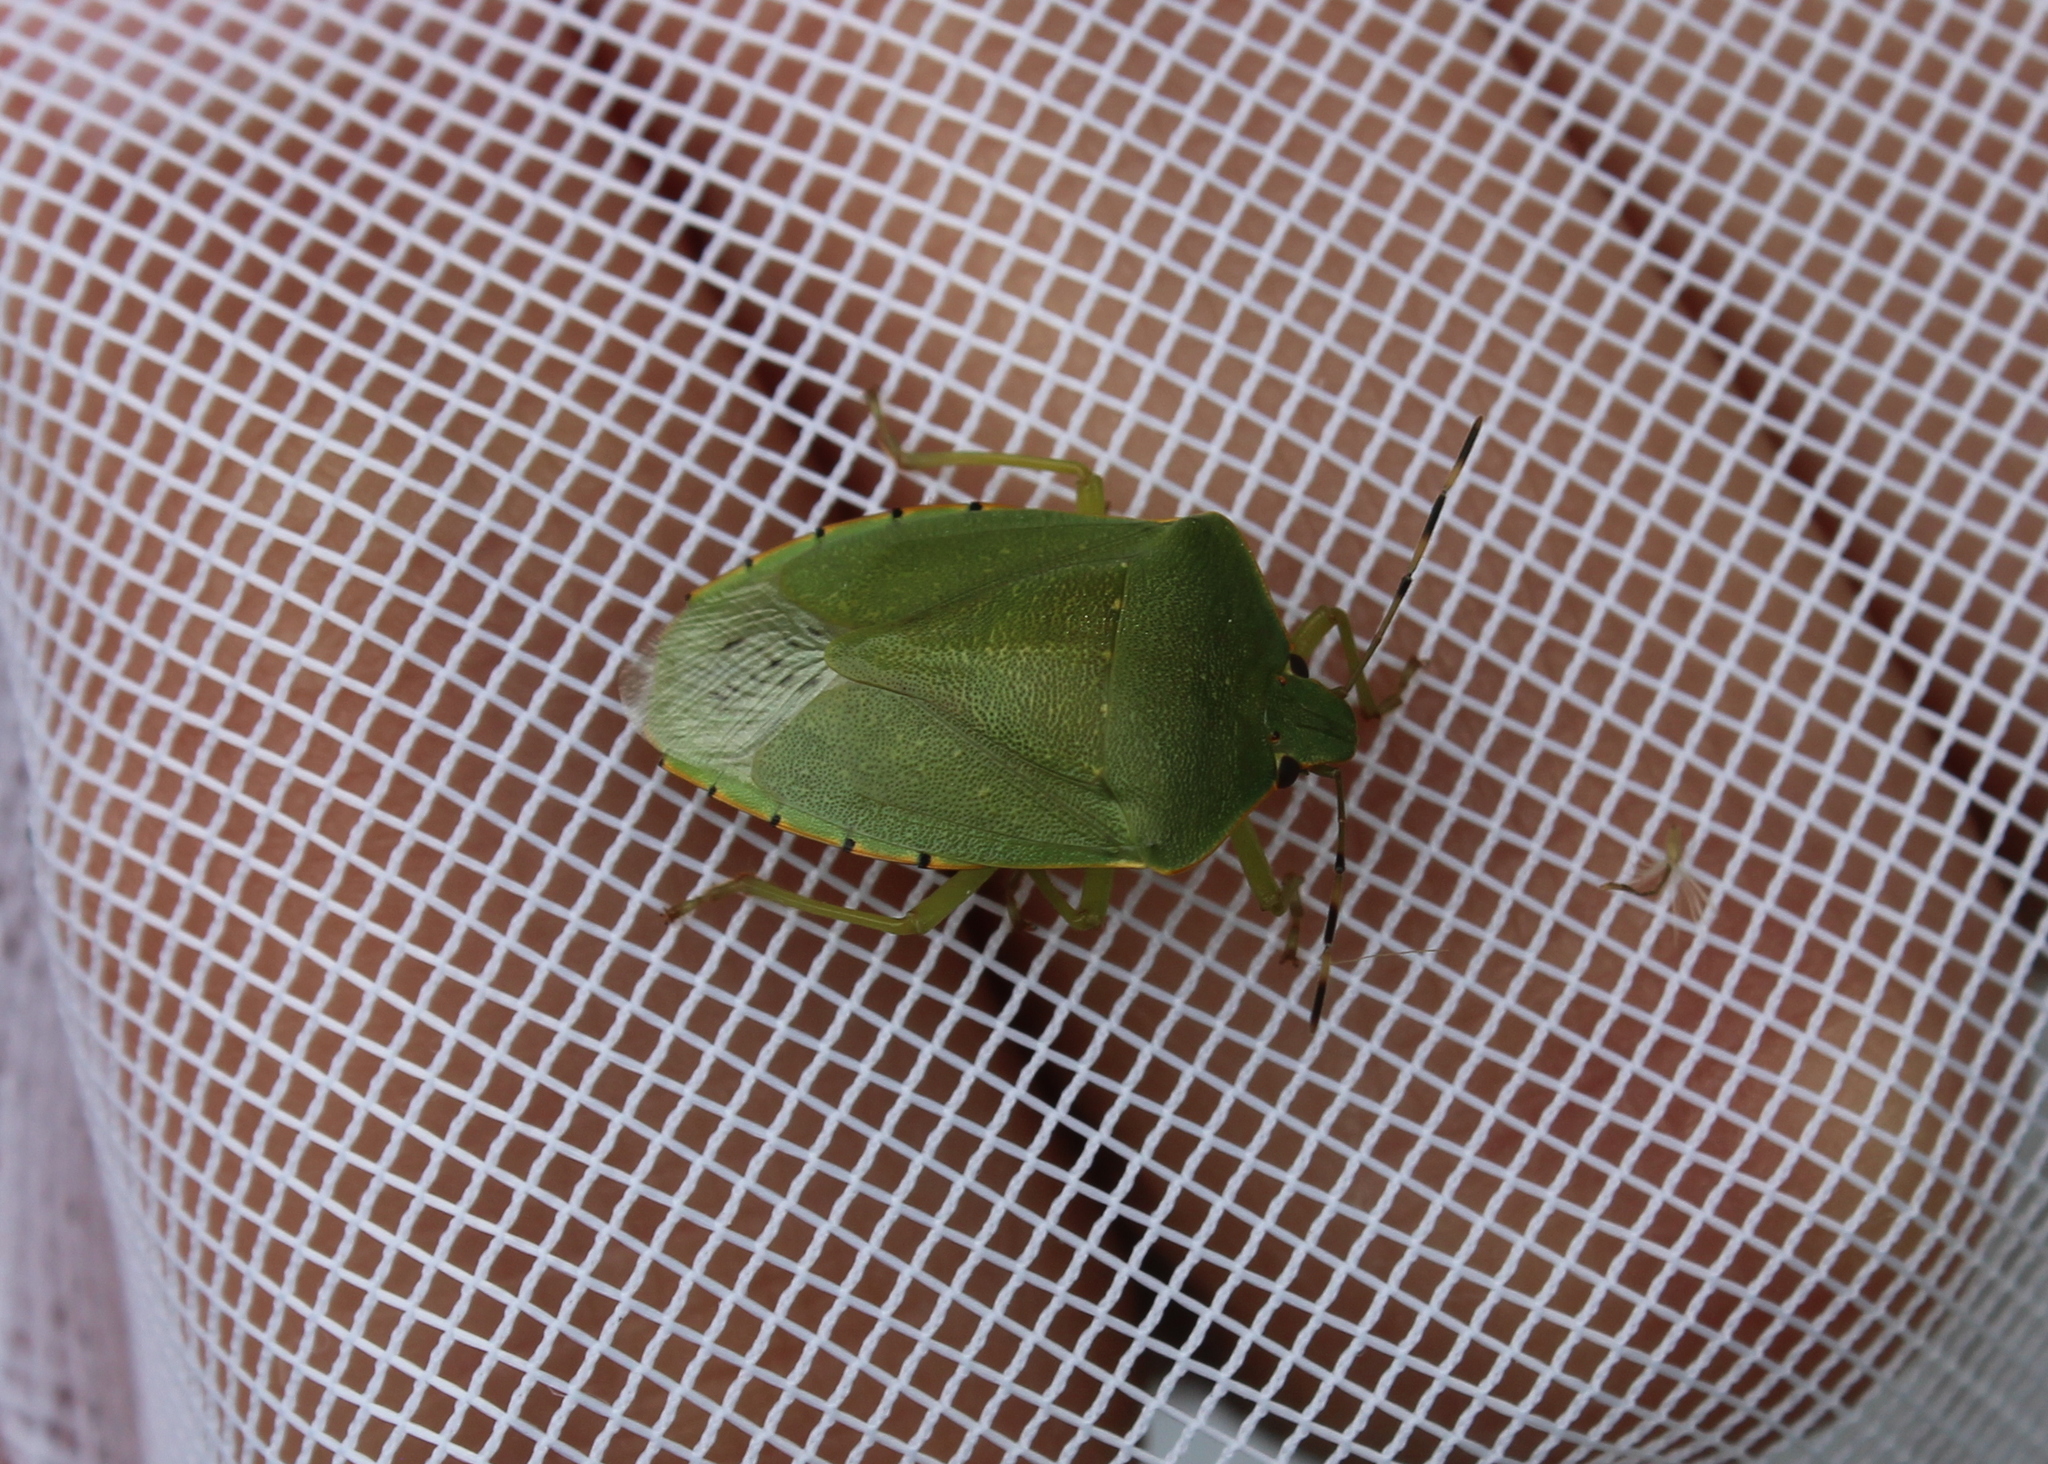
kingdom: Animalia
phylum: Arthropoda
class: Insecta
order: Hemiptera
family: Pentatomidae
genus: Chinavia
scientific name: Chinavia hilaris
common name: Green stink bug
